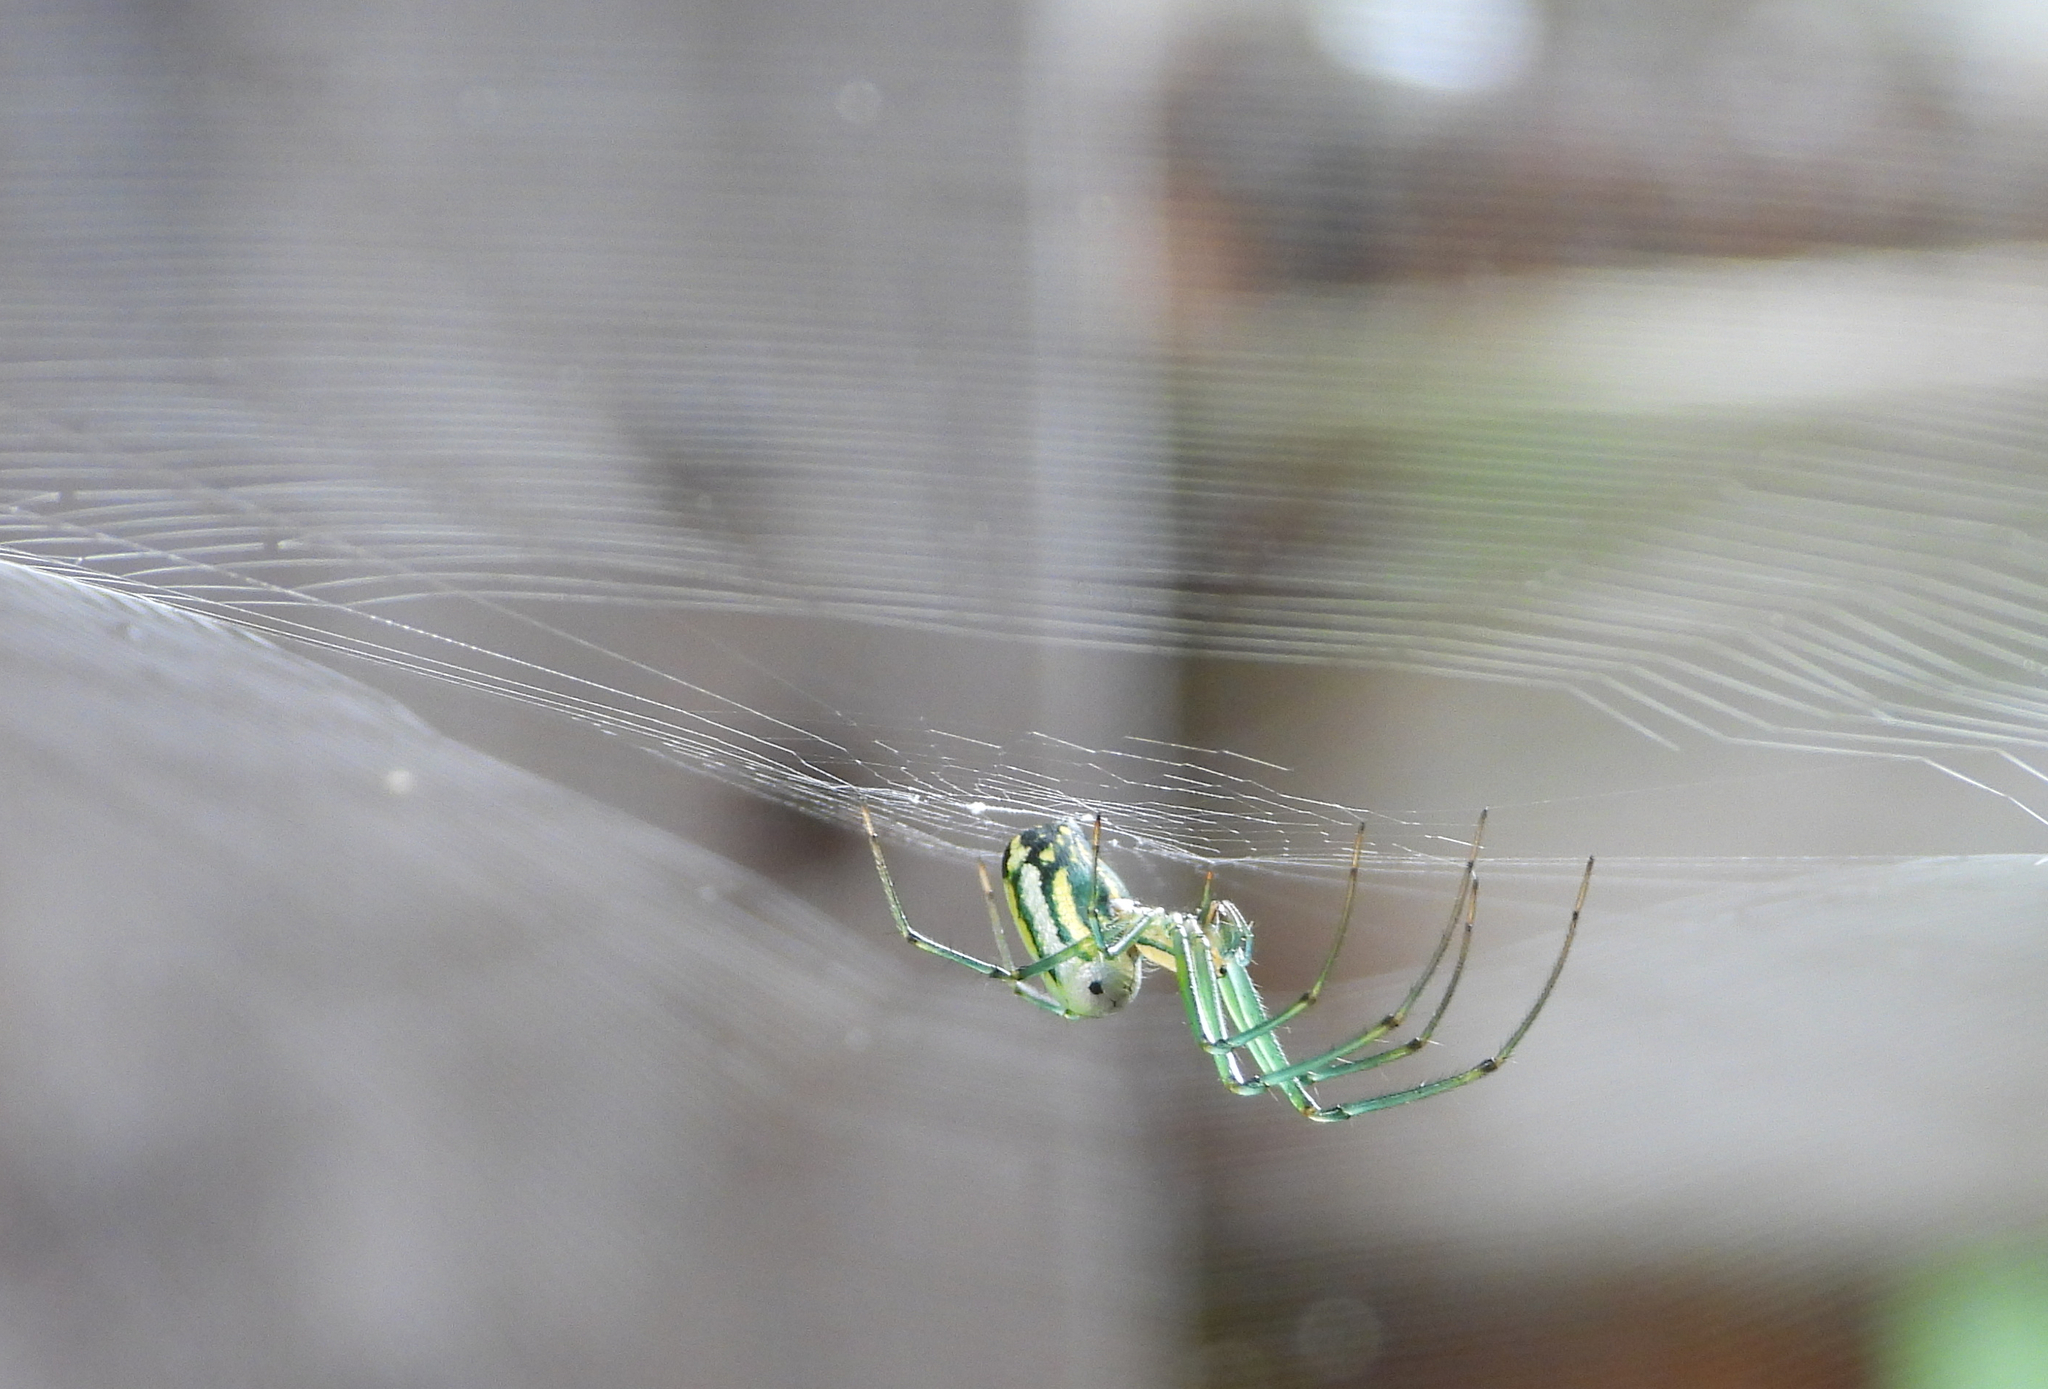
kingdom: Animalia
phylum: Arthropoda
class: Arachnida
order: Araneae
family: Tetragnathidae
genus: Leucauge
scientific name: Leucauge venusta
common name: Longjawed orb weavers
